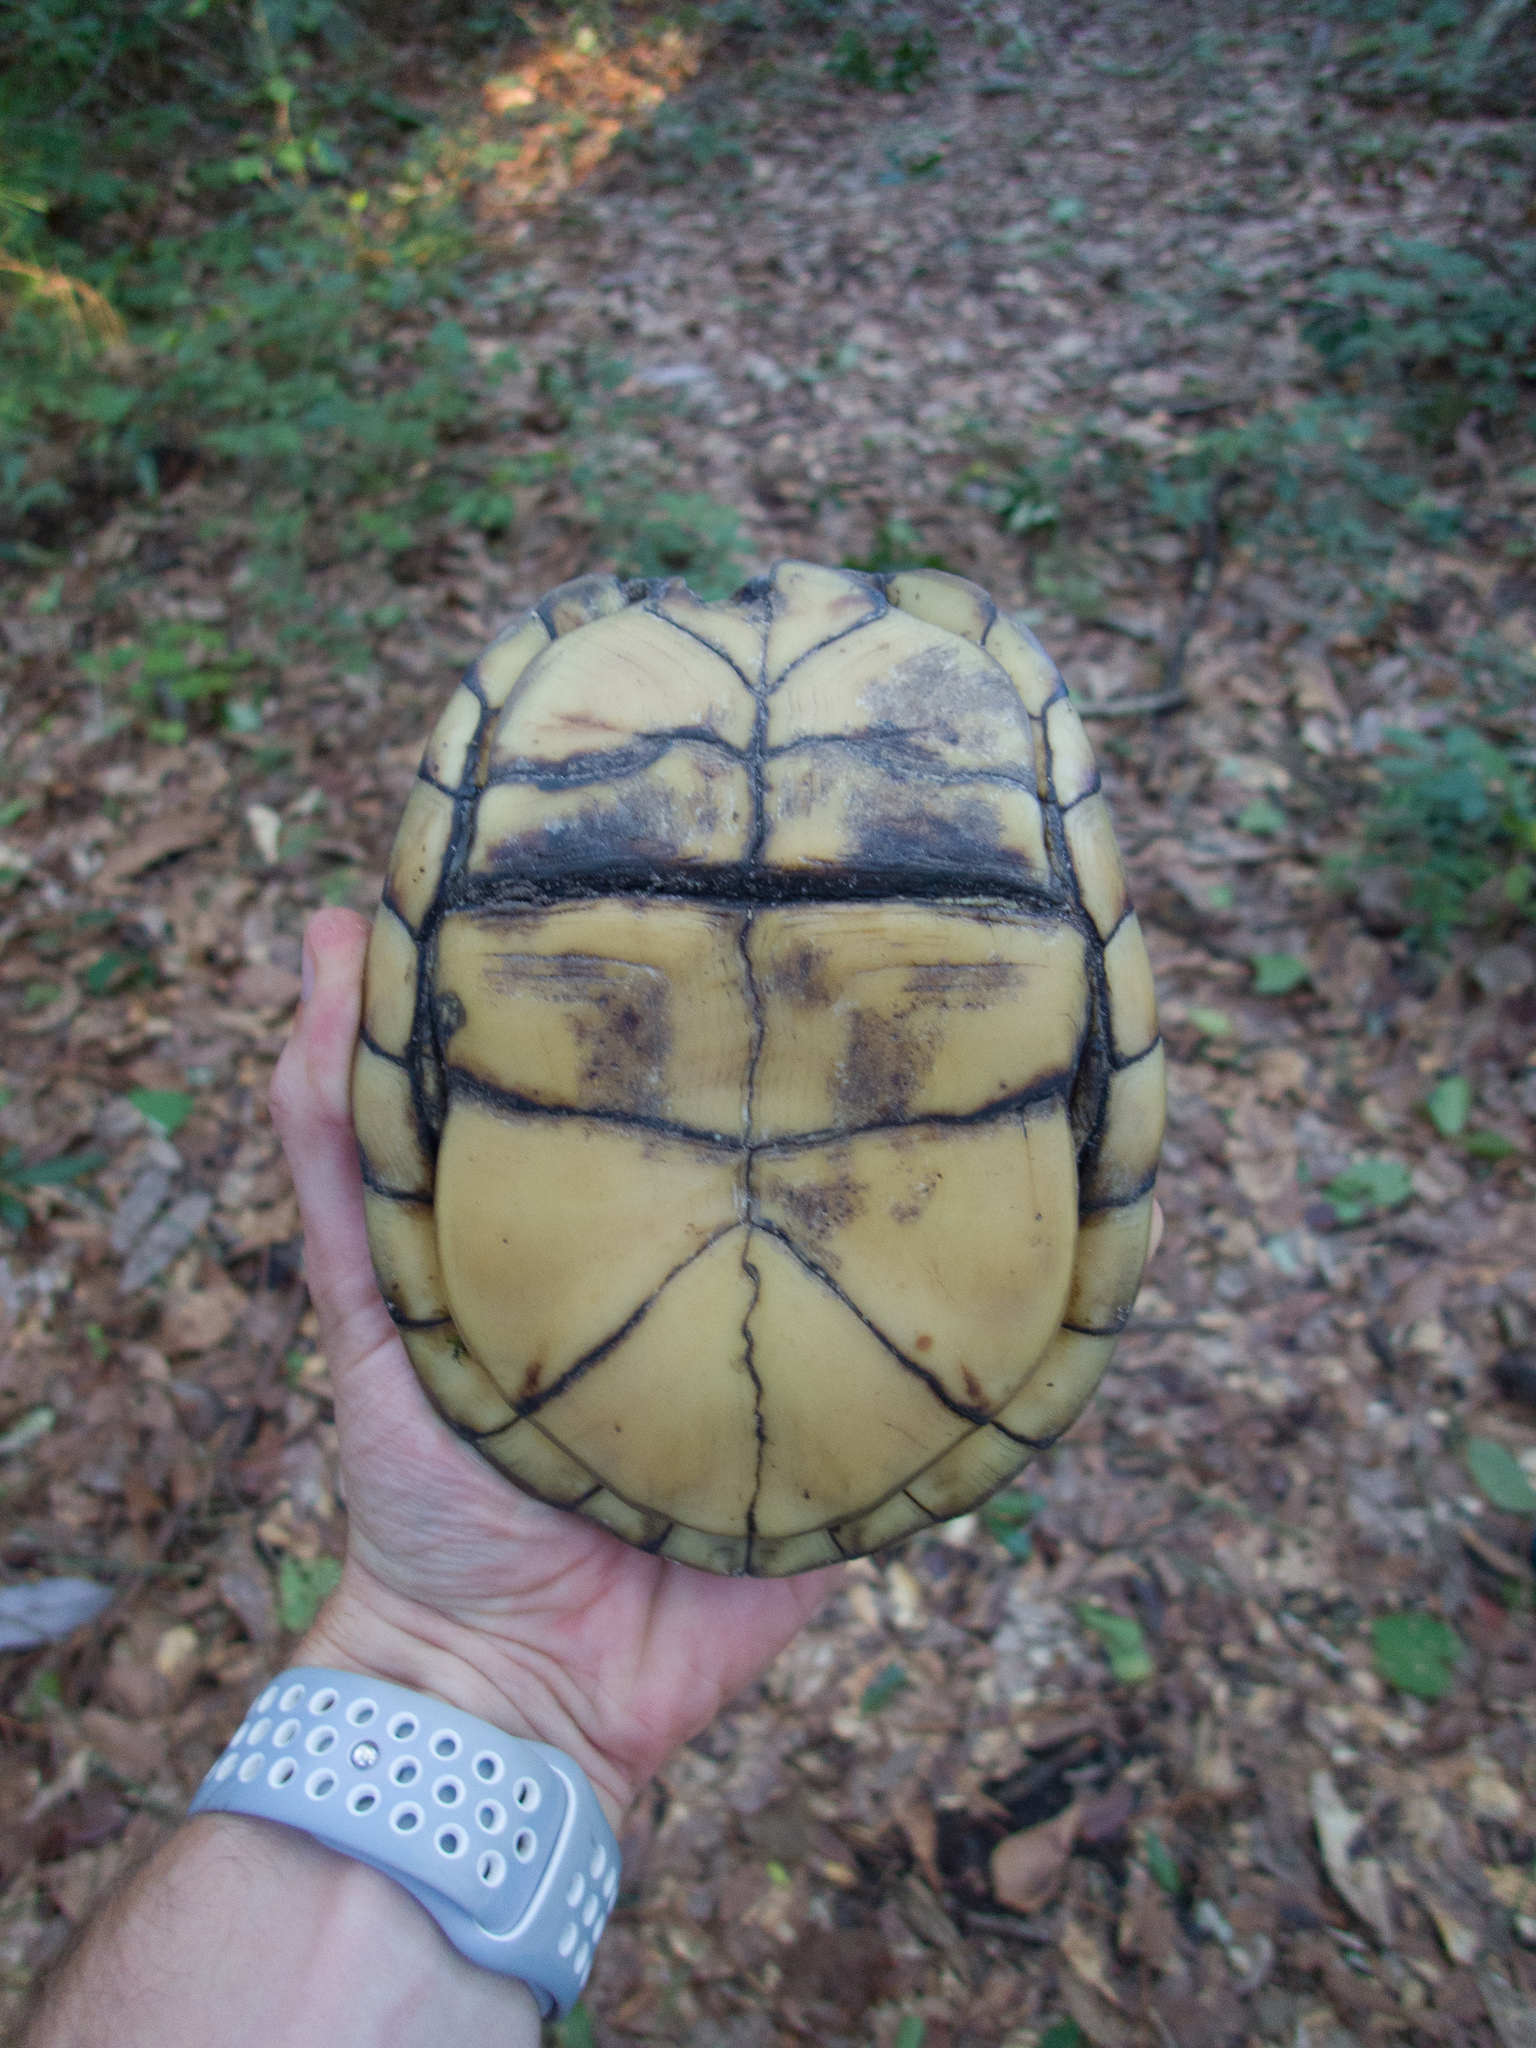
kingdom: Animalia
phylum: Chordata
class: Testudines
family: Emydidae
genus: Terrapene
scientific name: Terrapene carolina
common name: Common box turtle
